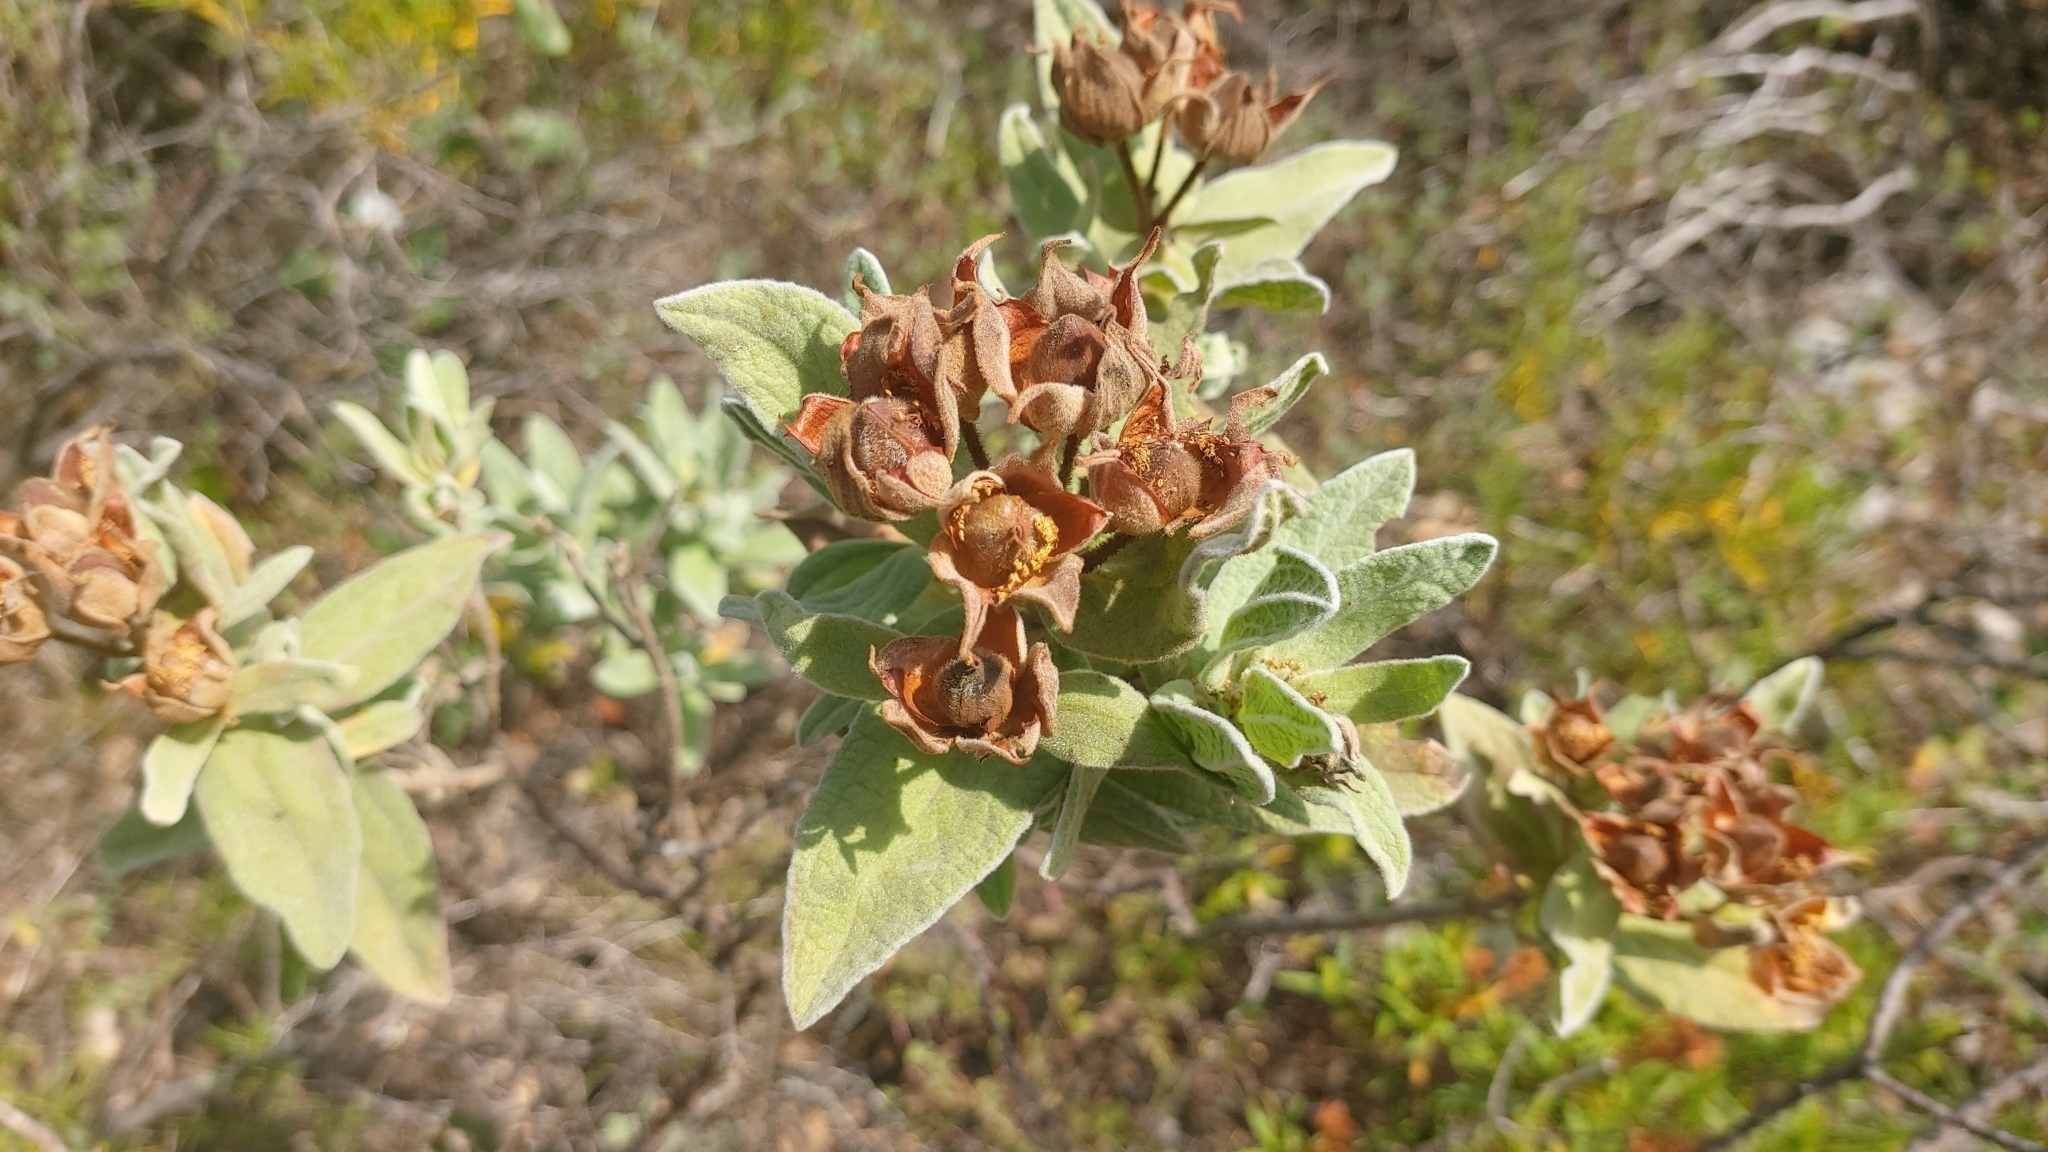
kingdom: Plantae
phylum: Tracheophyta
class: Magnoliopsida
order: Malvales
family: Cistaceae
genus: Cistus
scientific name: Cistus albidus
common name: White-leaf rock-rose
